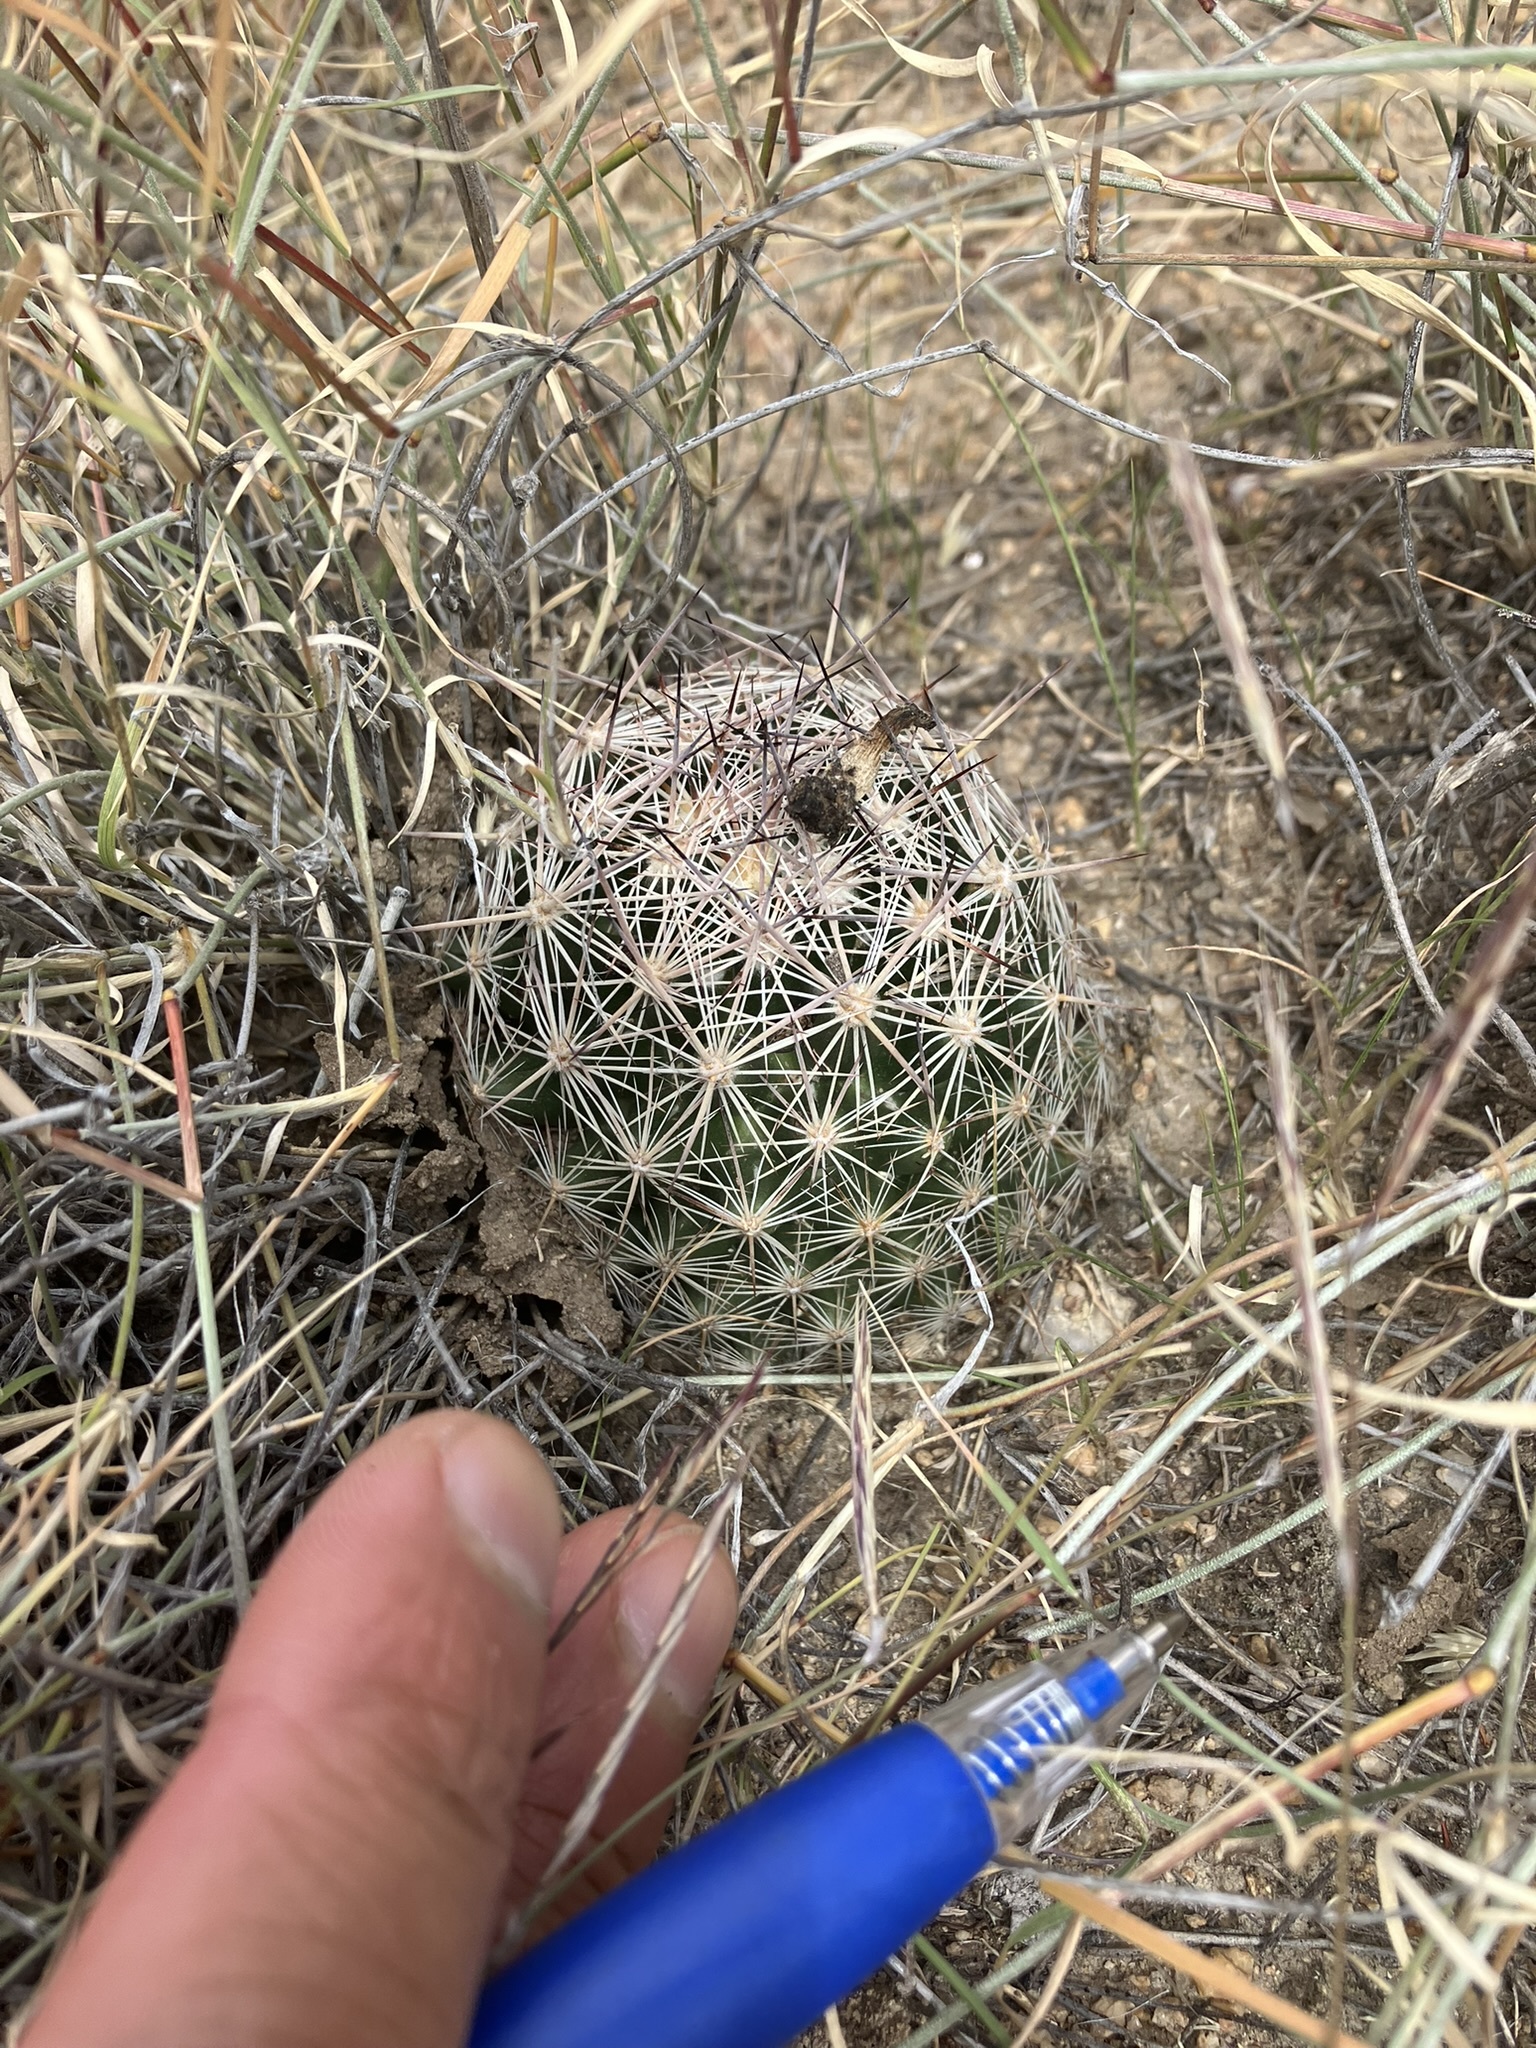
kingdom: Plantae
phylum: Tracheophyta
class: Magnoliopsida
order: Caryophyllales
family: Cactaceae
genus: Pelecyphora
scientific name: Pelecyphora vivipara
